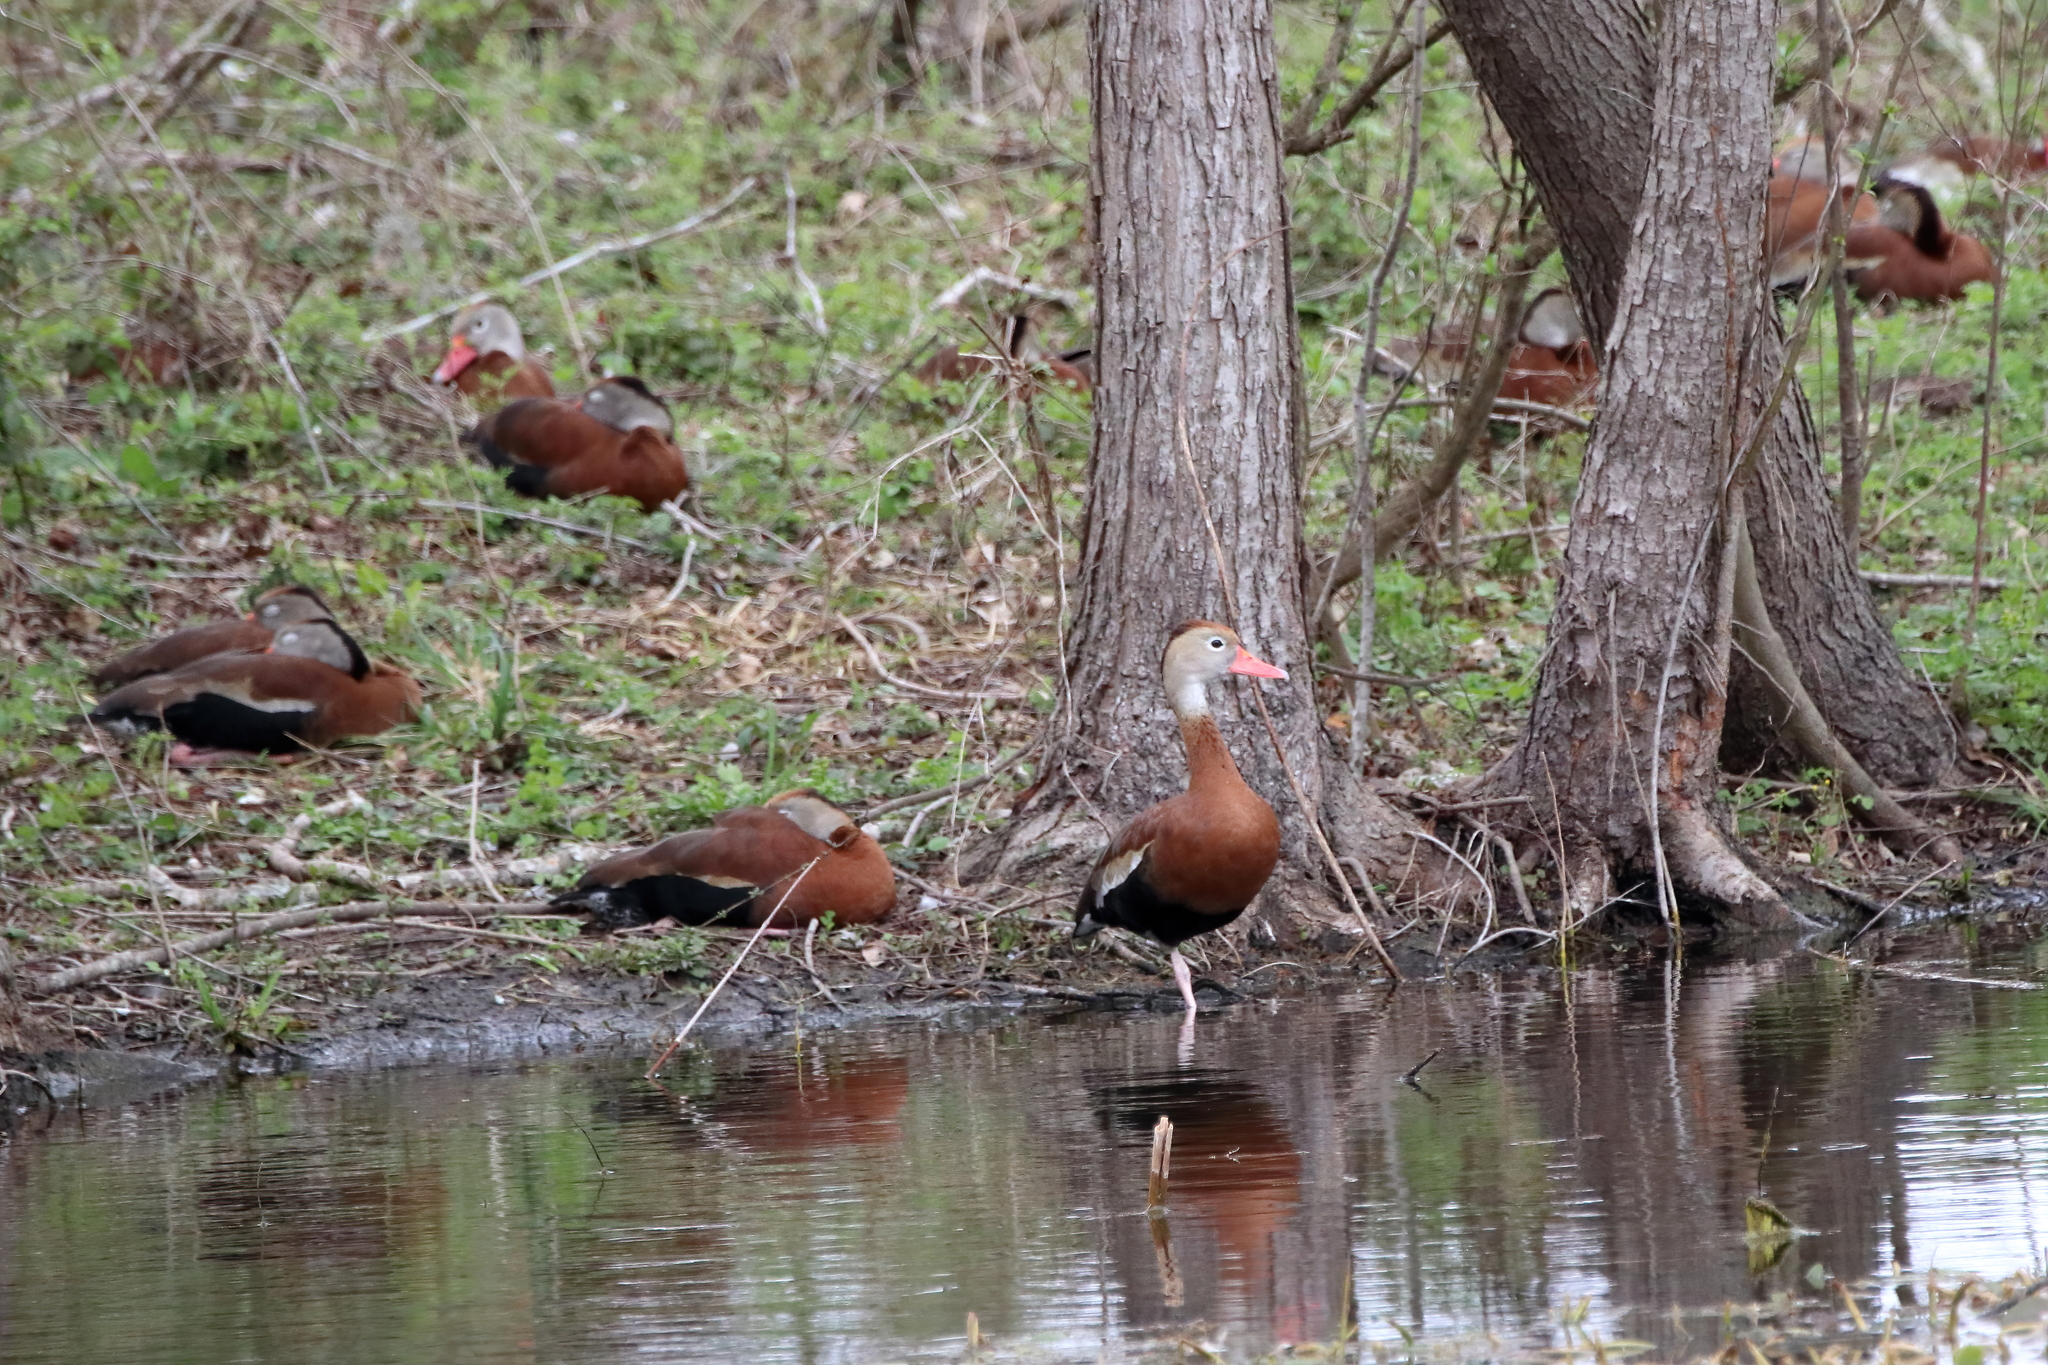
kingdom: Animalia
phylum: Chordata
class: Aves
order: Anseriformes
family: Anatidae
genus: Dendrocygna
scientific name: Dendrocygna autumnalis
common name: Black-bellied whistling duck
